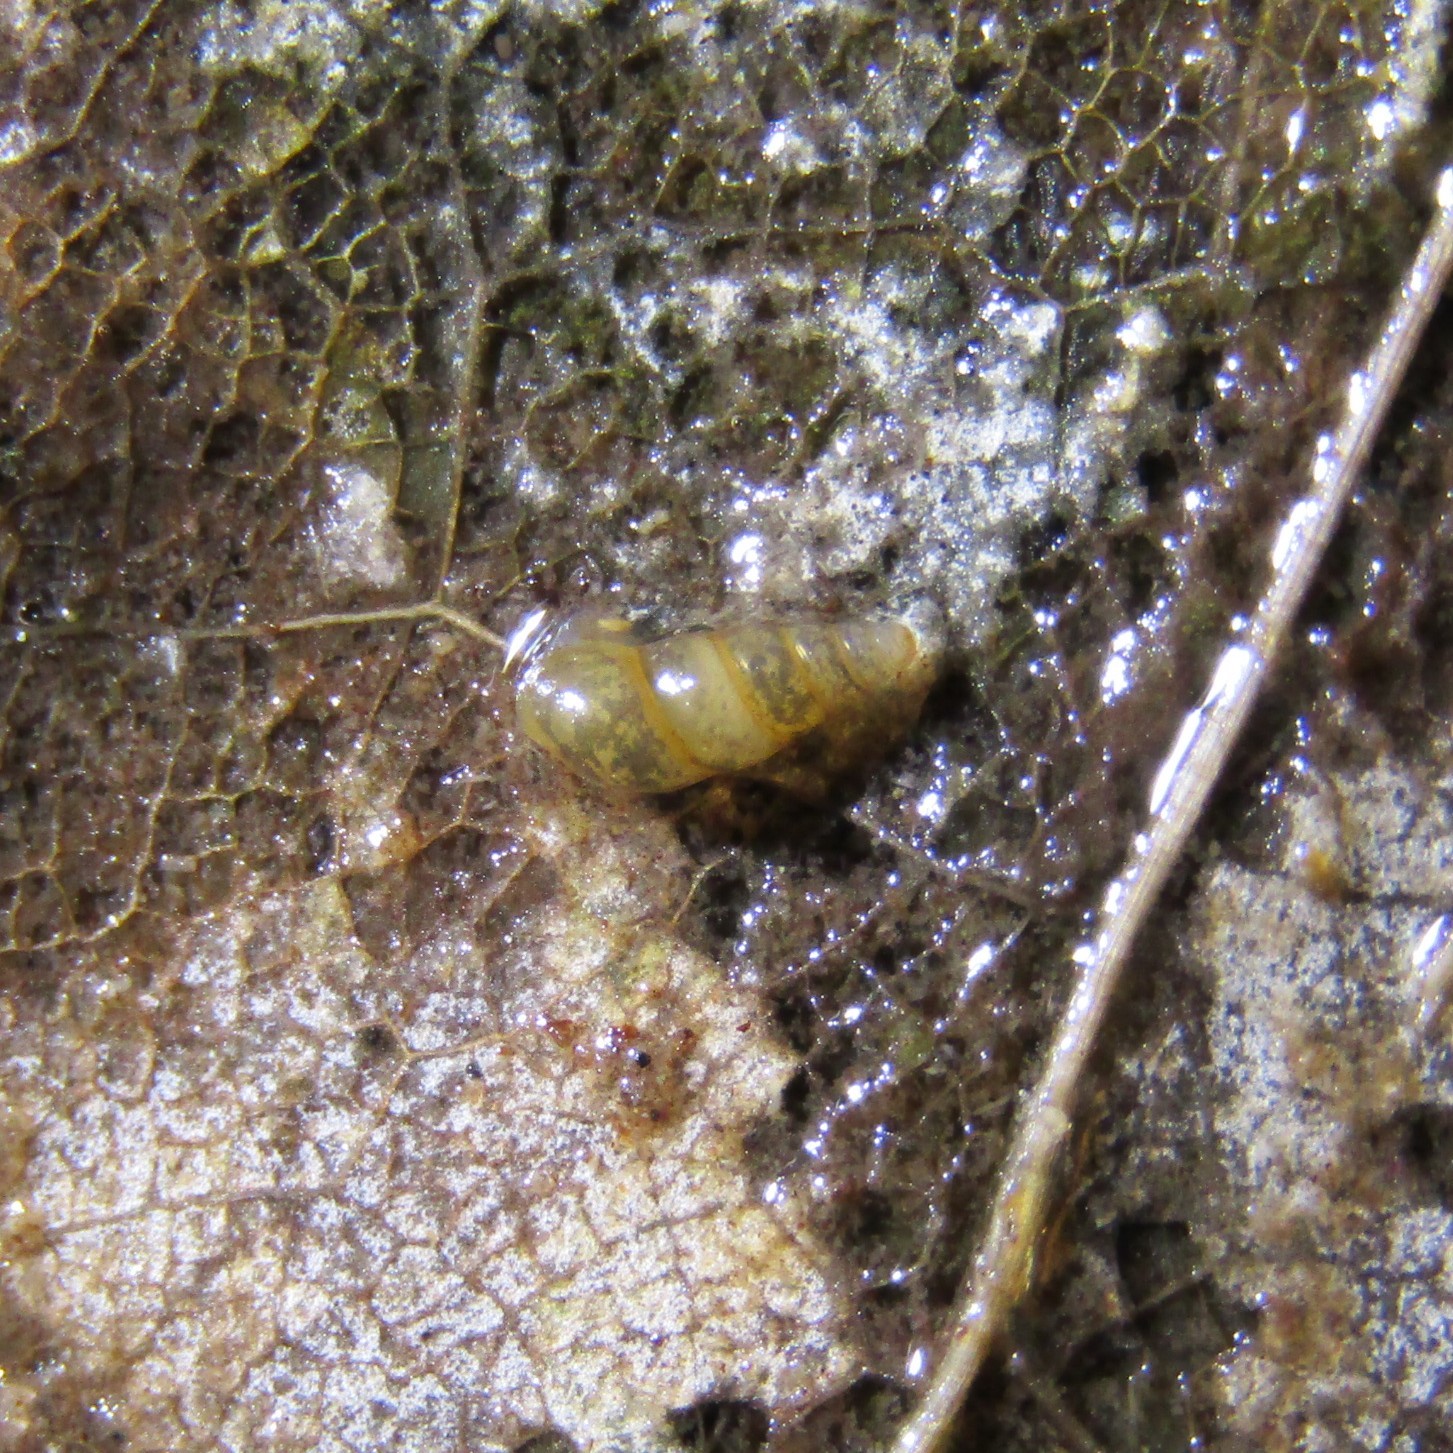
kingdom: Animalia
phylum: Mollusca
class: Gastropoda
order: Littorinimorpha
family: Tateidae
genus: Potamopyrgus
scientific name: Potamopyrgus oppidanus
